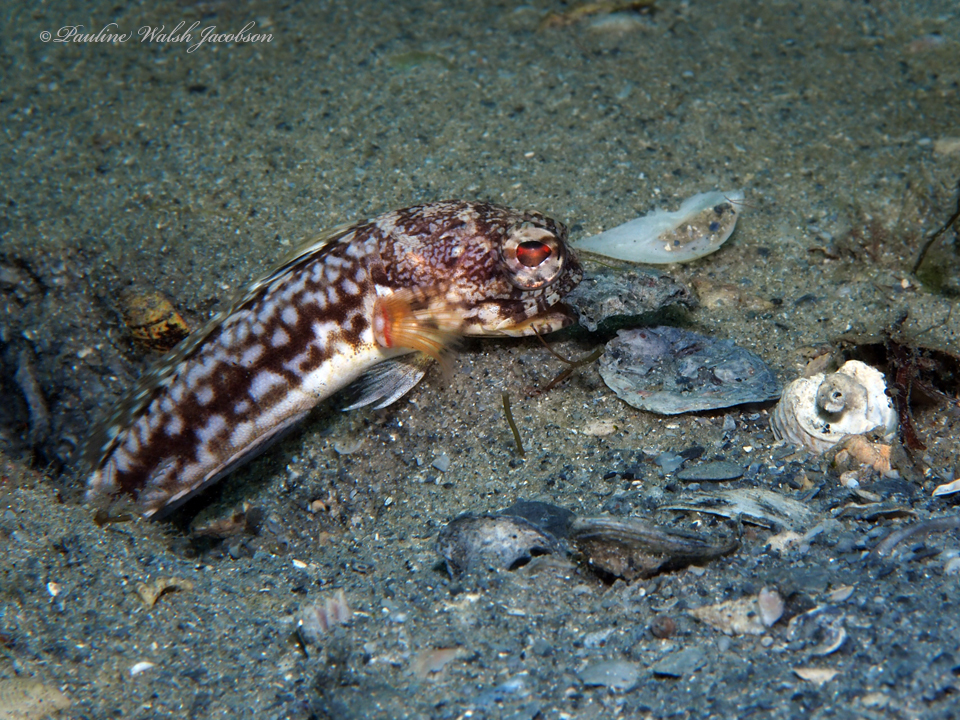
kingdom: Animalia
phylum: Chordata
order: Perciformes
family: Opistognathidae
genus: Opistognathus
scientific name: Opistognathus robinsi
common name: Spotfin jawfish
